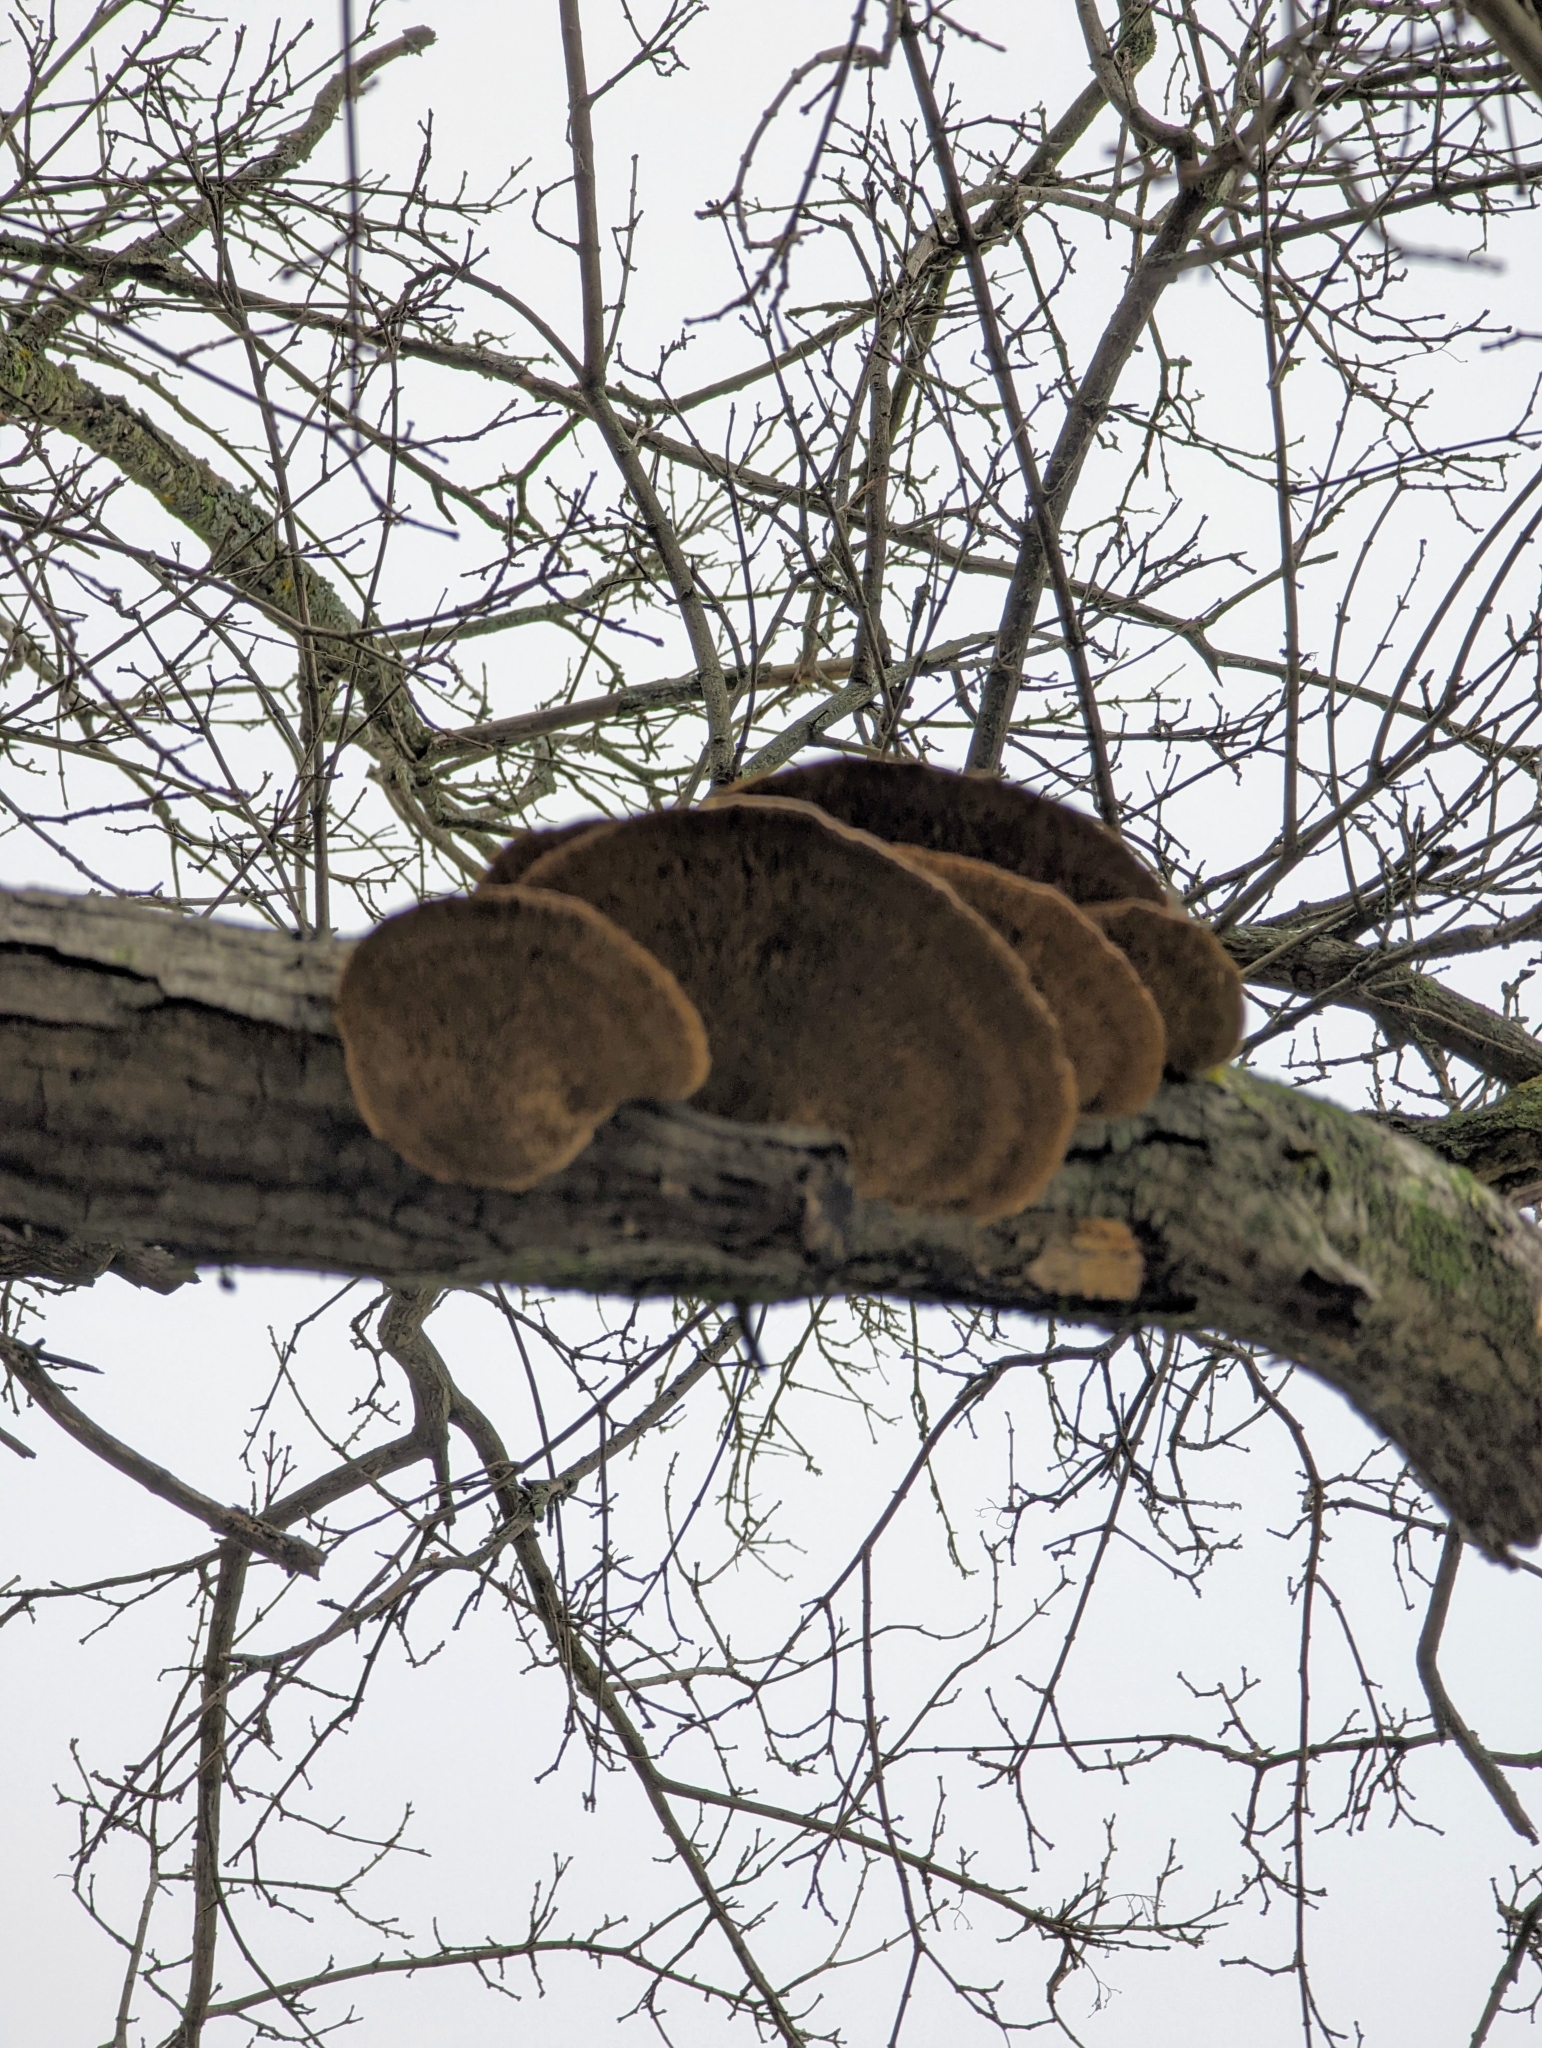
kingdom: Fungi
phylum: Basidiomycota
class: Agaricomycetes
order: Polyporales
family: Polyporaceae
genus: Daedaleopsis
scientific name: Daedaleopsis confragosa
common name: Blushing bracket
